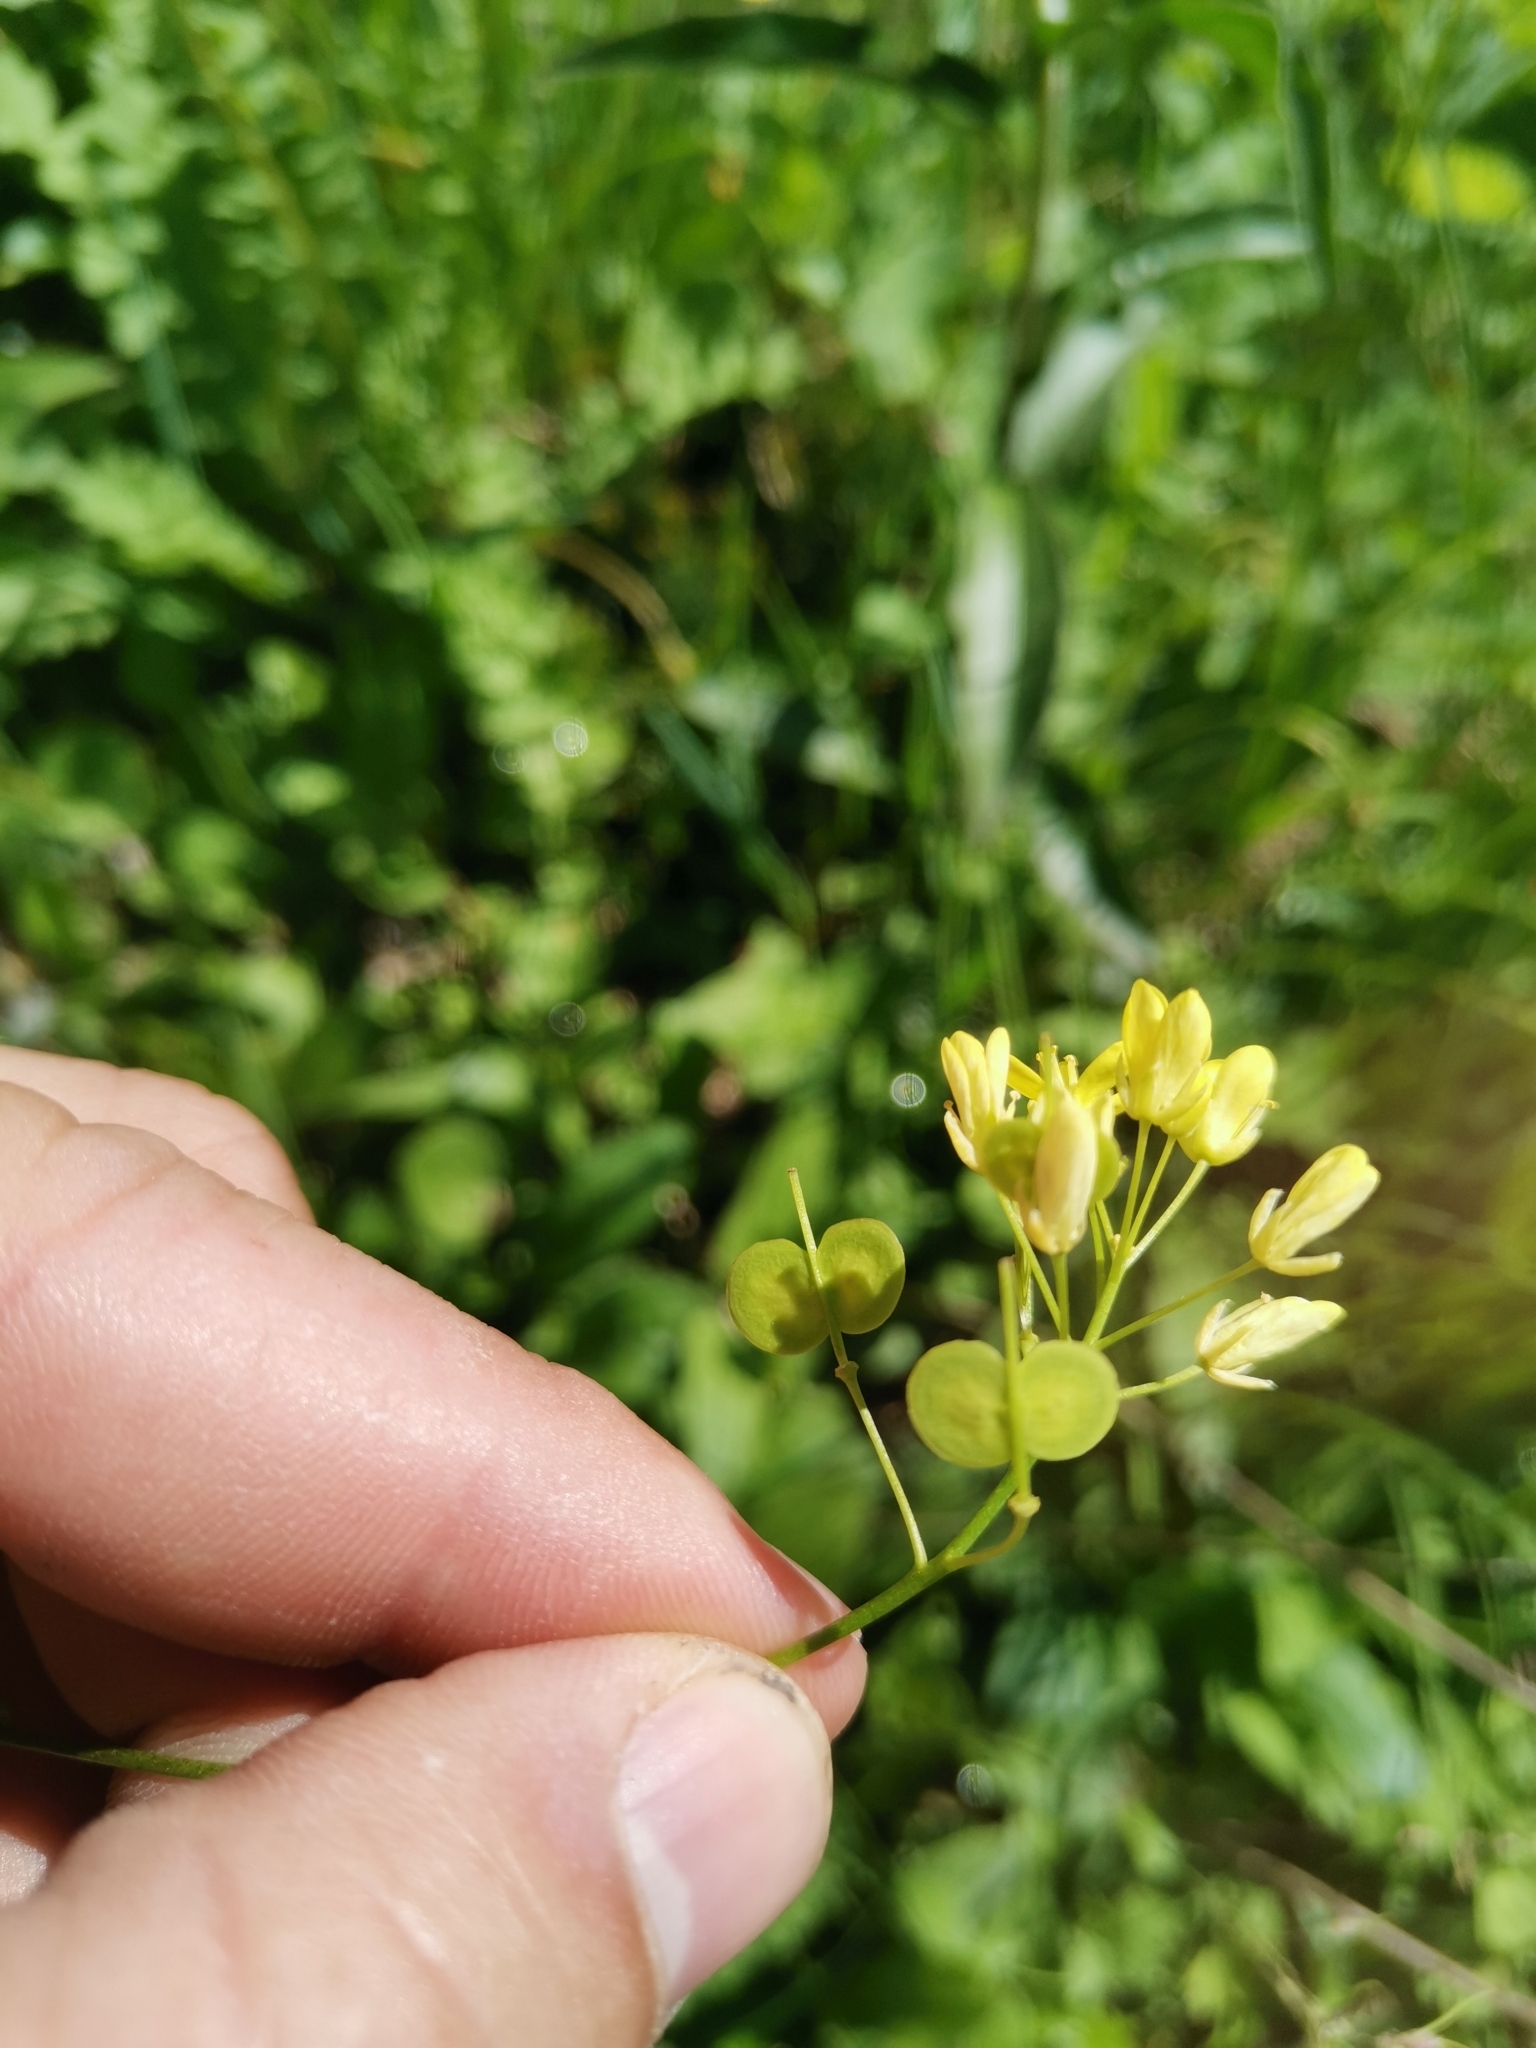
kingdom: Plantae
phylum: Tracheophyta
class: Magnoliopsida
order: Brassicales
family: Brassicaceae
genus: Biscutella
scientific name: Biscutella laevigata
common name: Buckler mustard
